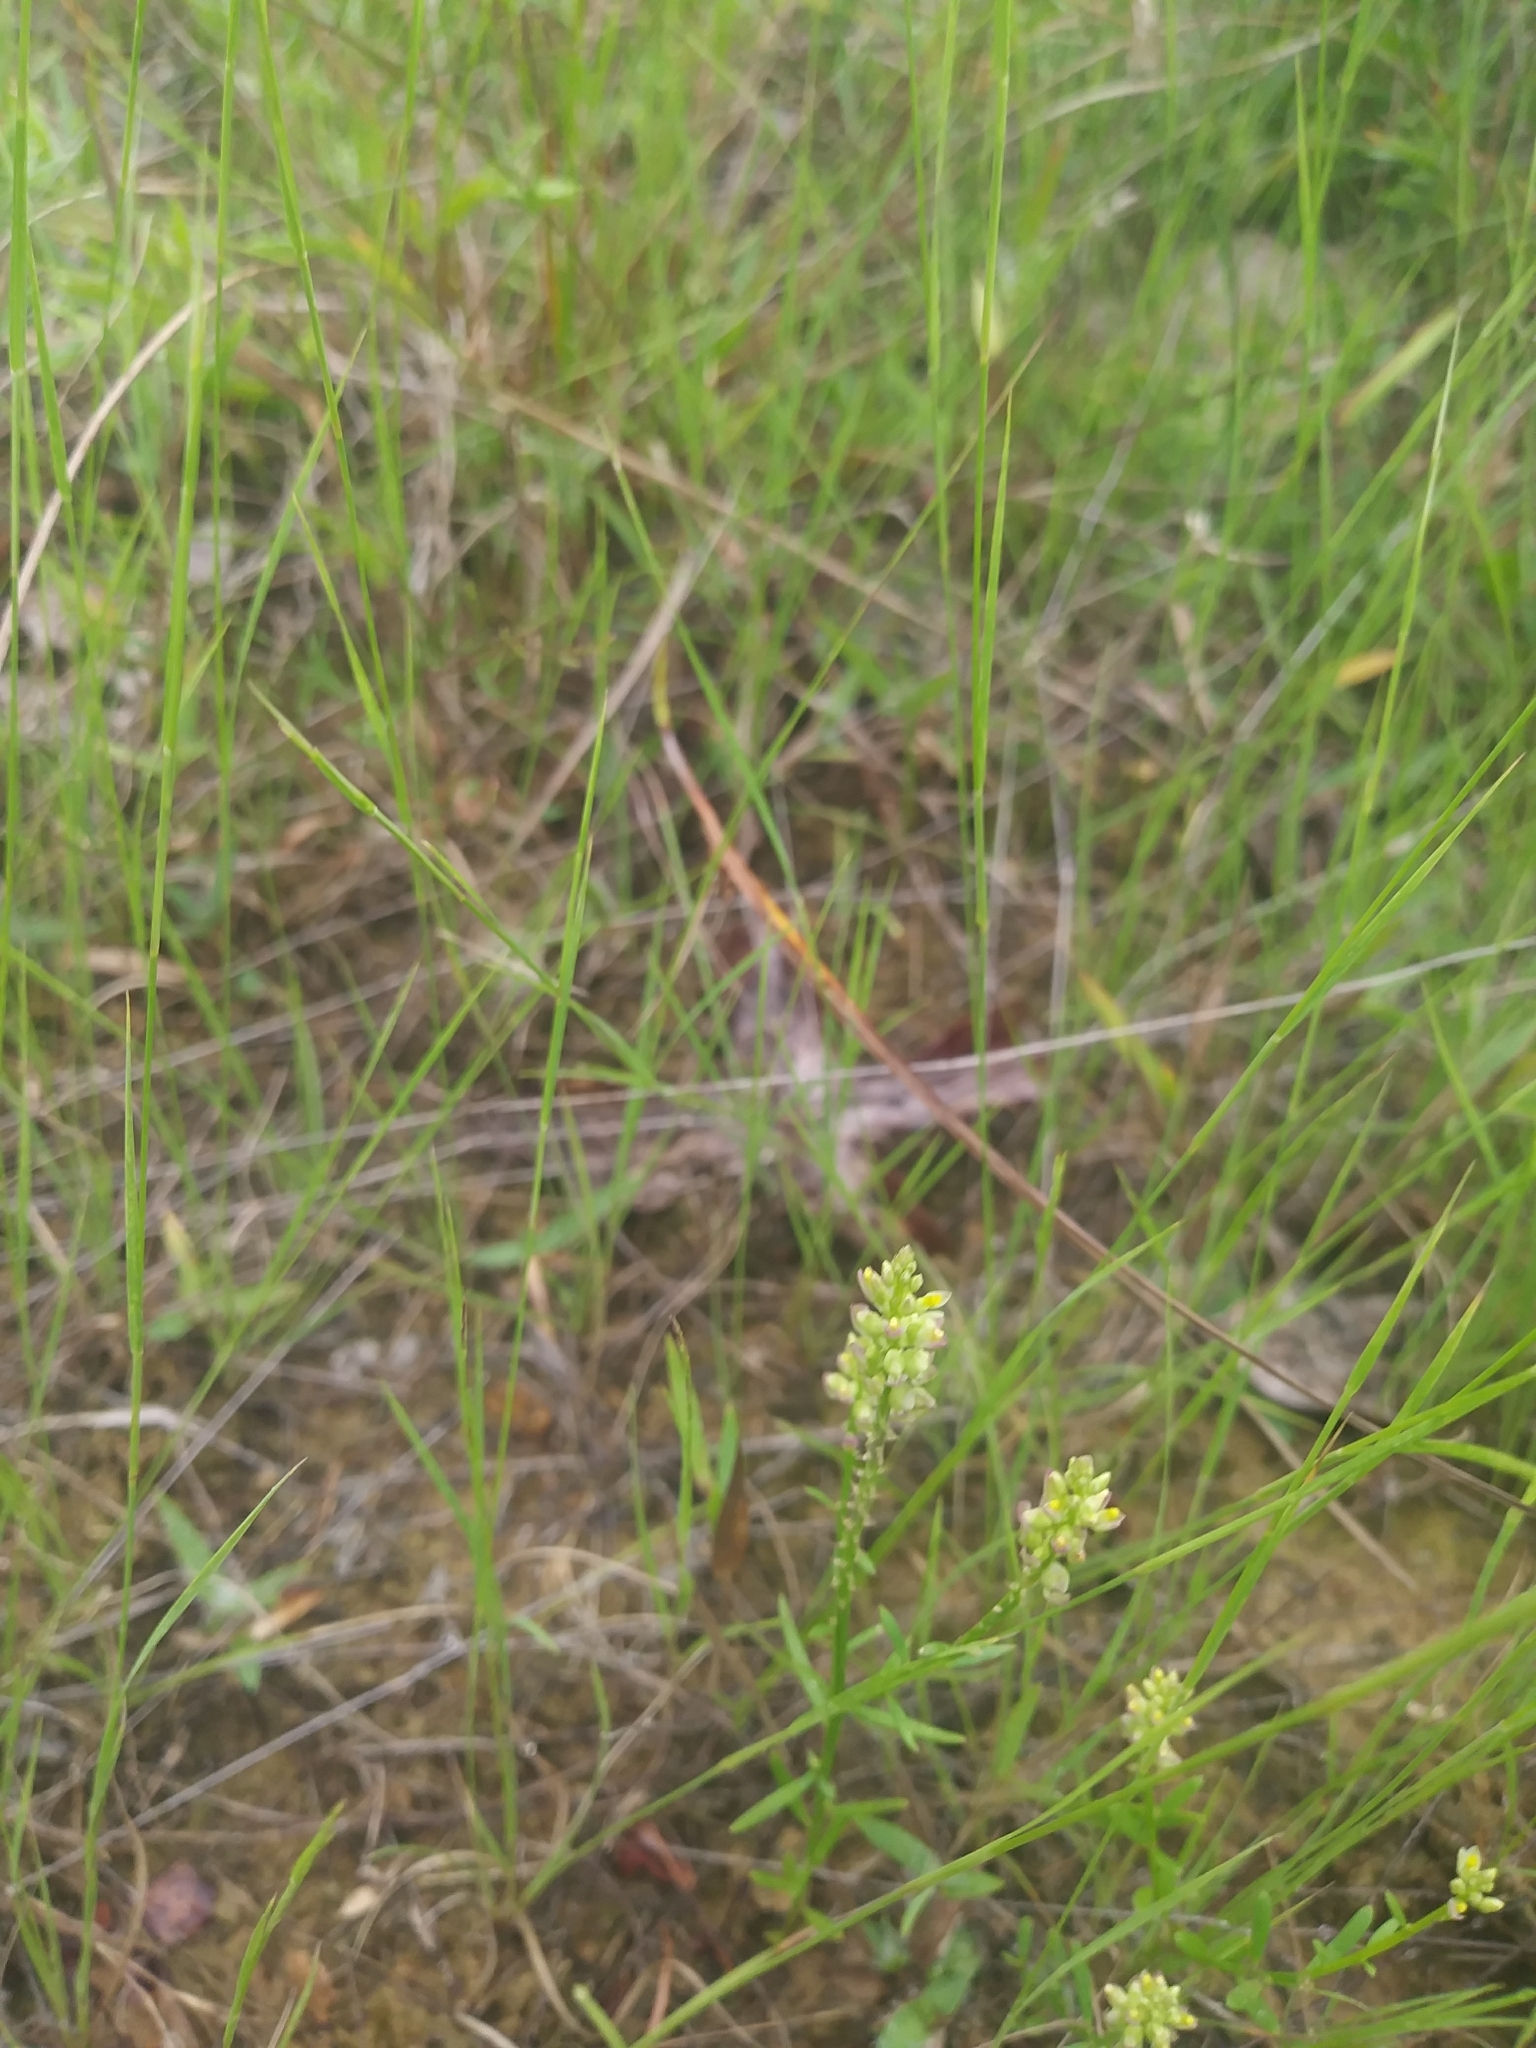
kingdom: Plantae
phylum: Tracheophyta
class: Magnoliopsida
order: Fabales
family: Polygalaceae
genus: Polygala
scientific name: Polygala verticillata
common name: Whorl milkwort
